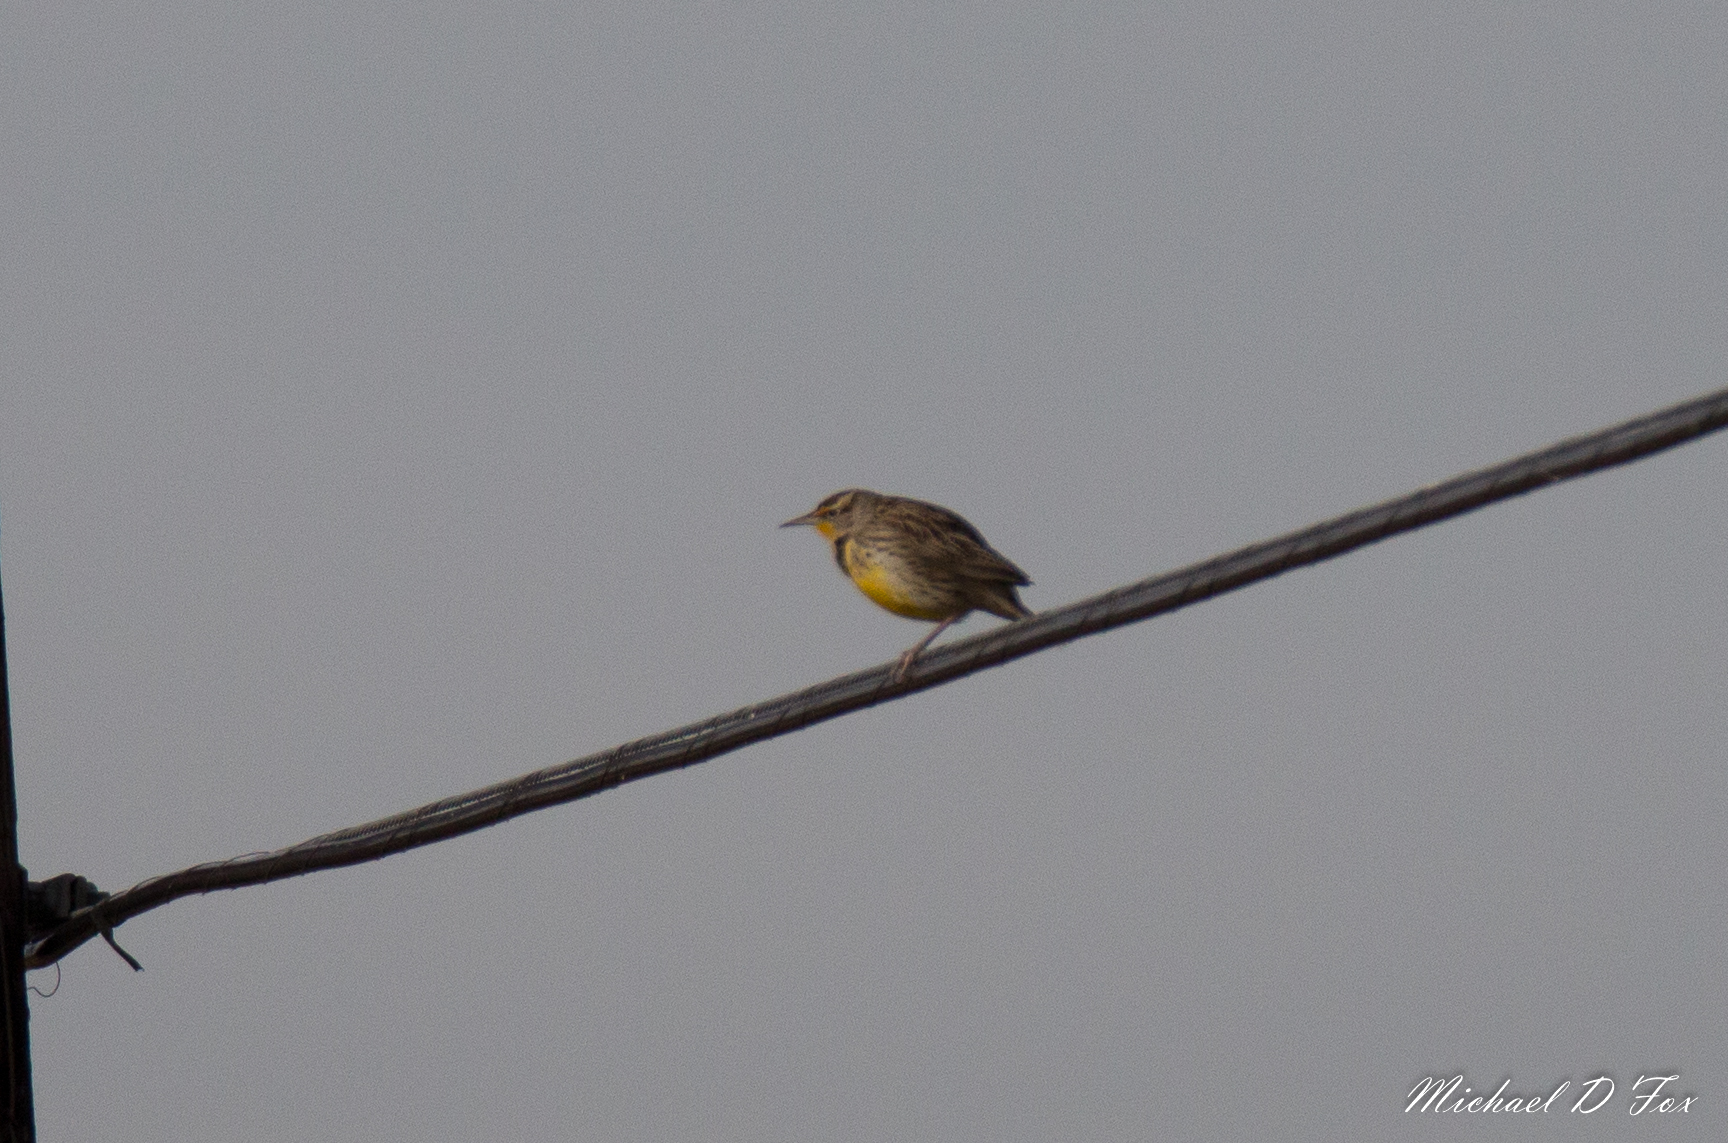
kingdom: Animalia
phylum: Chordata
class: Aves
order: Passeriformes
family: Icteridae
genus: Sturnella
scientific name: Sturnella neglecta
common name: Western meadowlark
